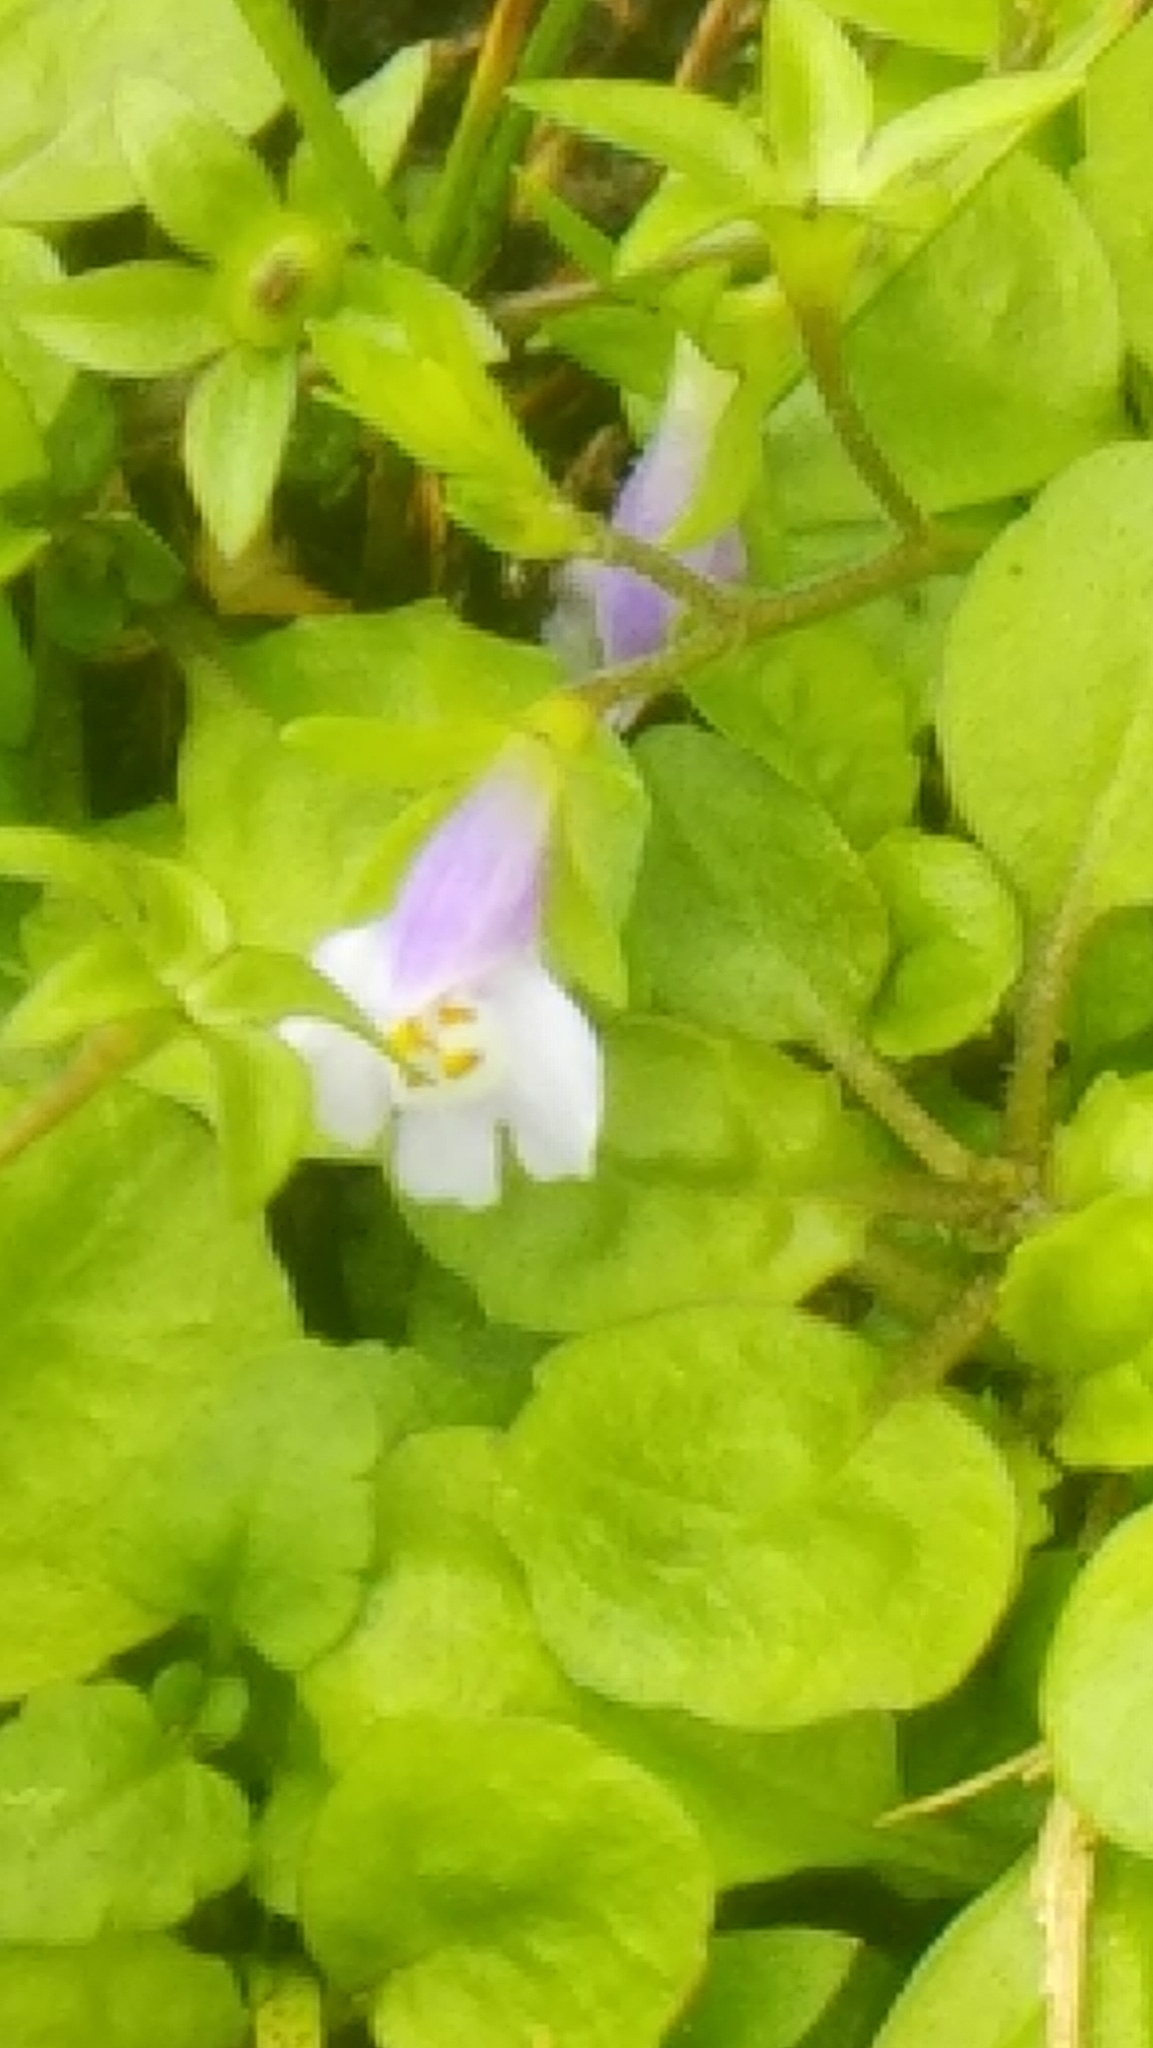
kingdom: Plantae
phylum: Tracheophyta
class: Magnoliopsida
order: Lamiales
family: Mazaceae
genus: Mazus
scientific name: Mazus pumilus
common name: Japanese mazus
